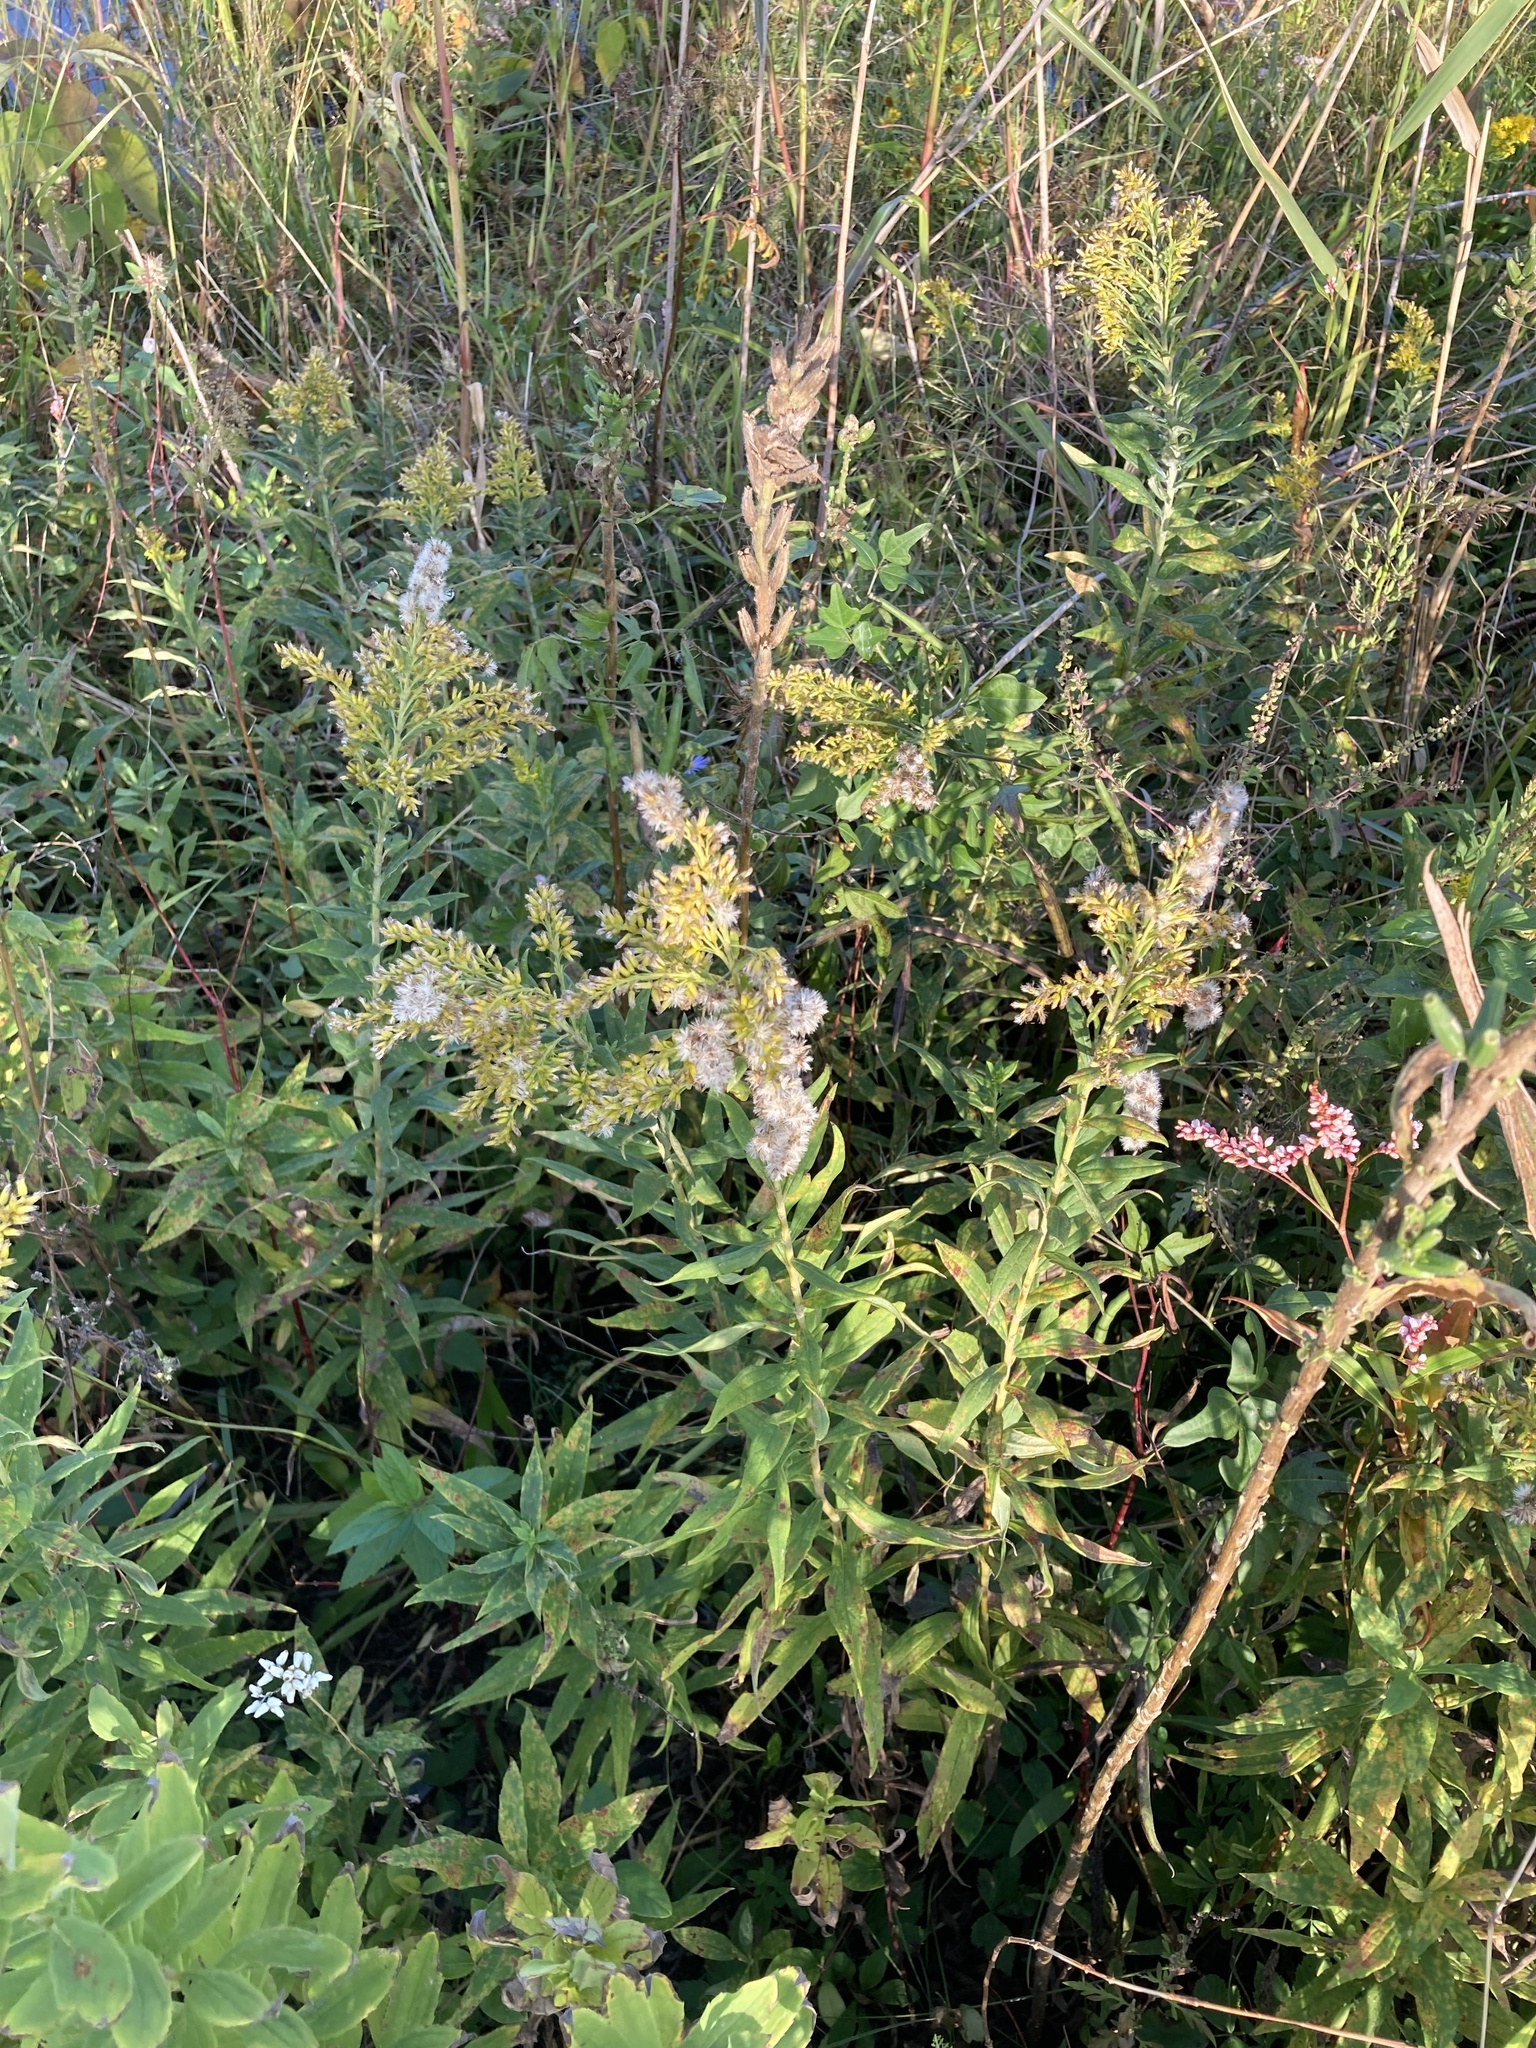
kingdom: Plantae
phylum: Tracheophyta
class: Magnoliopsida
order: Asterales
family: Asteraceae
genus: Solidago
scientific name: Solidago rugosa
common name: Rough-stemmed goldenrod
